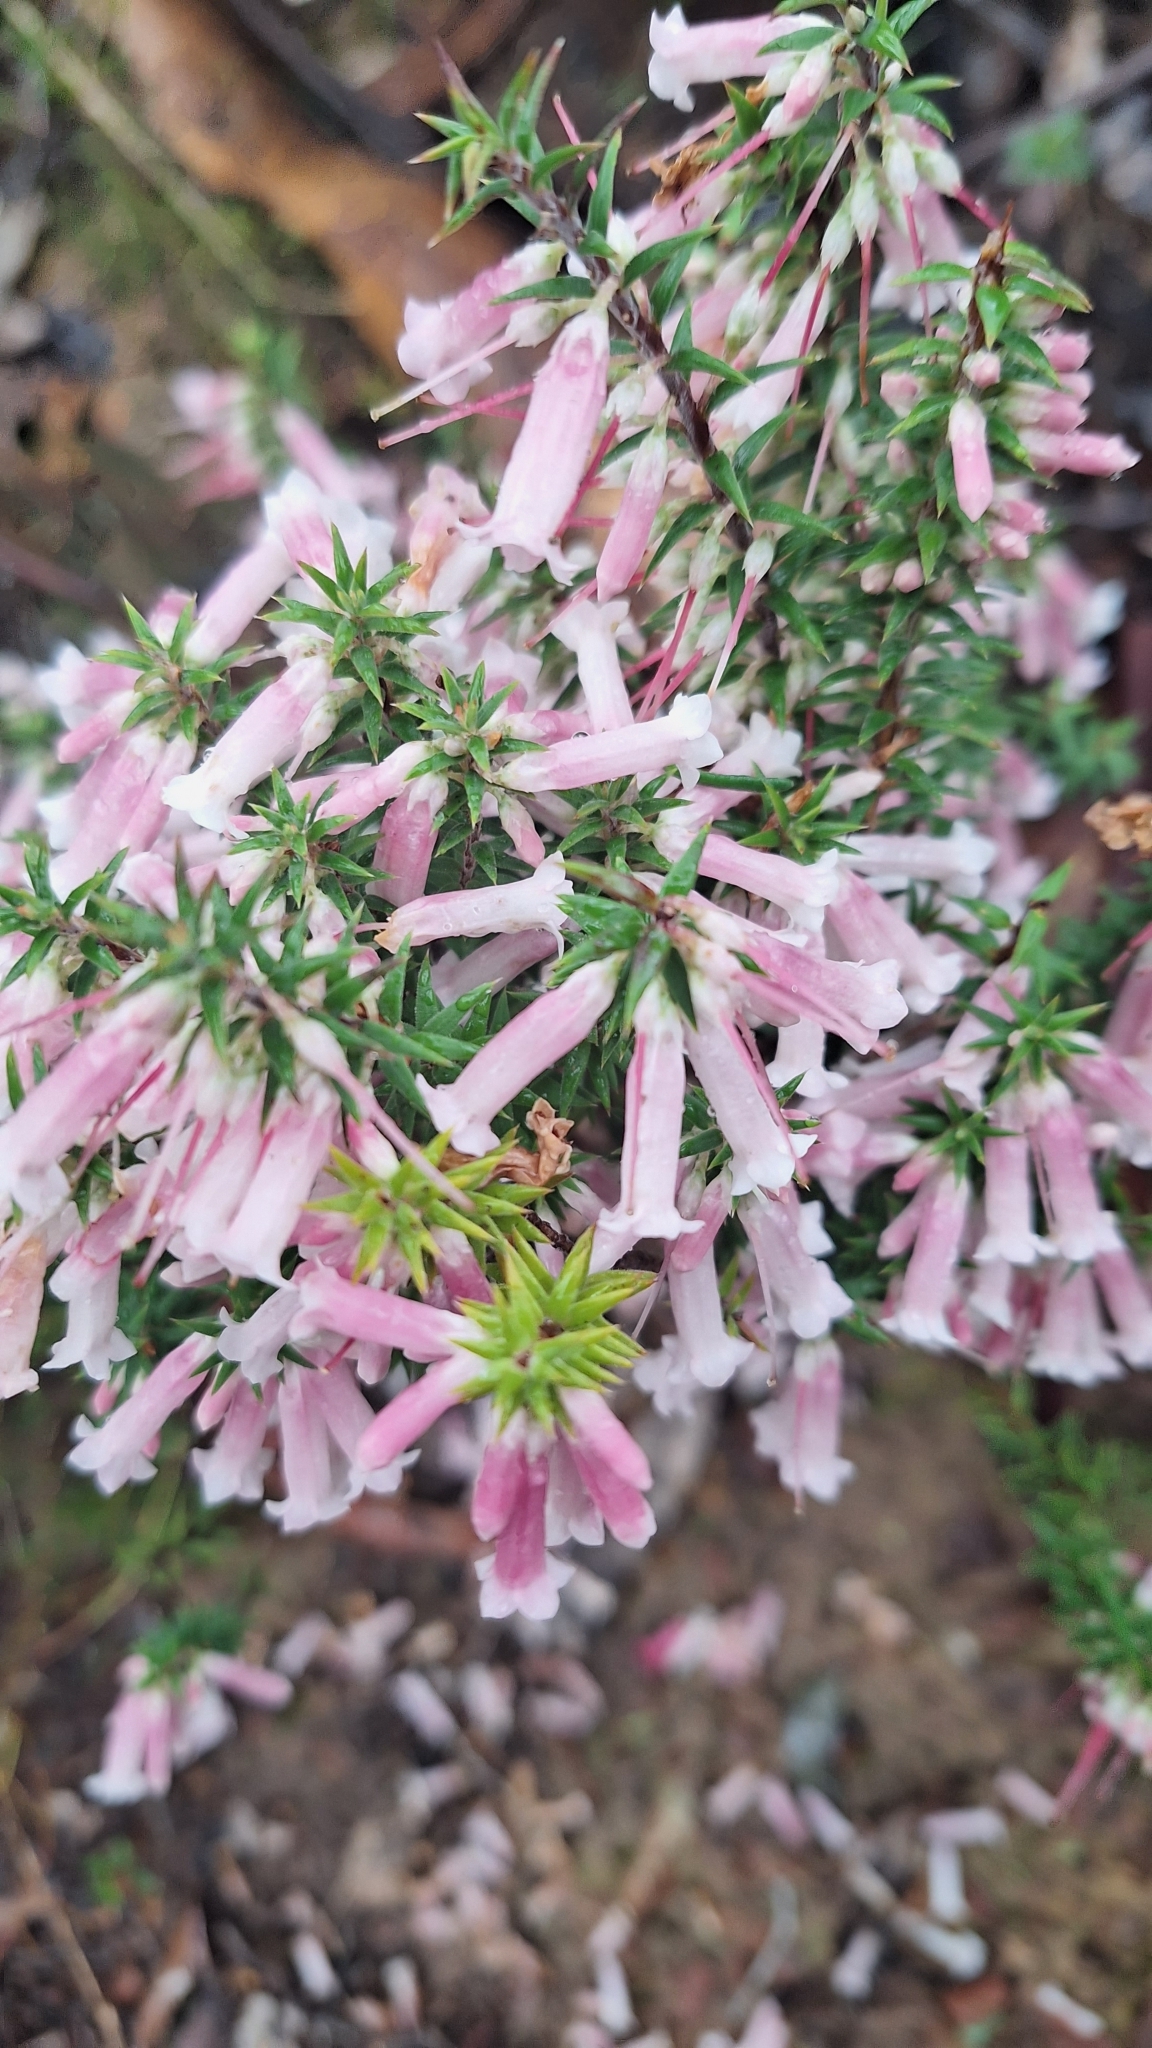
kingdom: Plantae
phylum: Tracheophyta
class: Magnoliopsida
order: Ericales
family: Ericaceae
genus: Epacris
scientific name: Epacris impressa
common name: Common-heath
